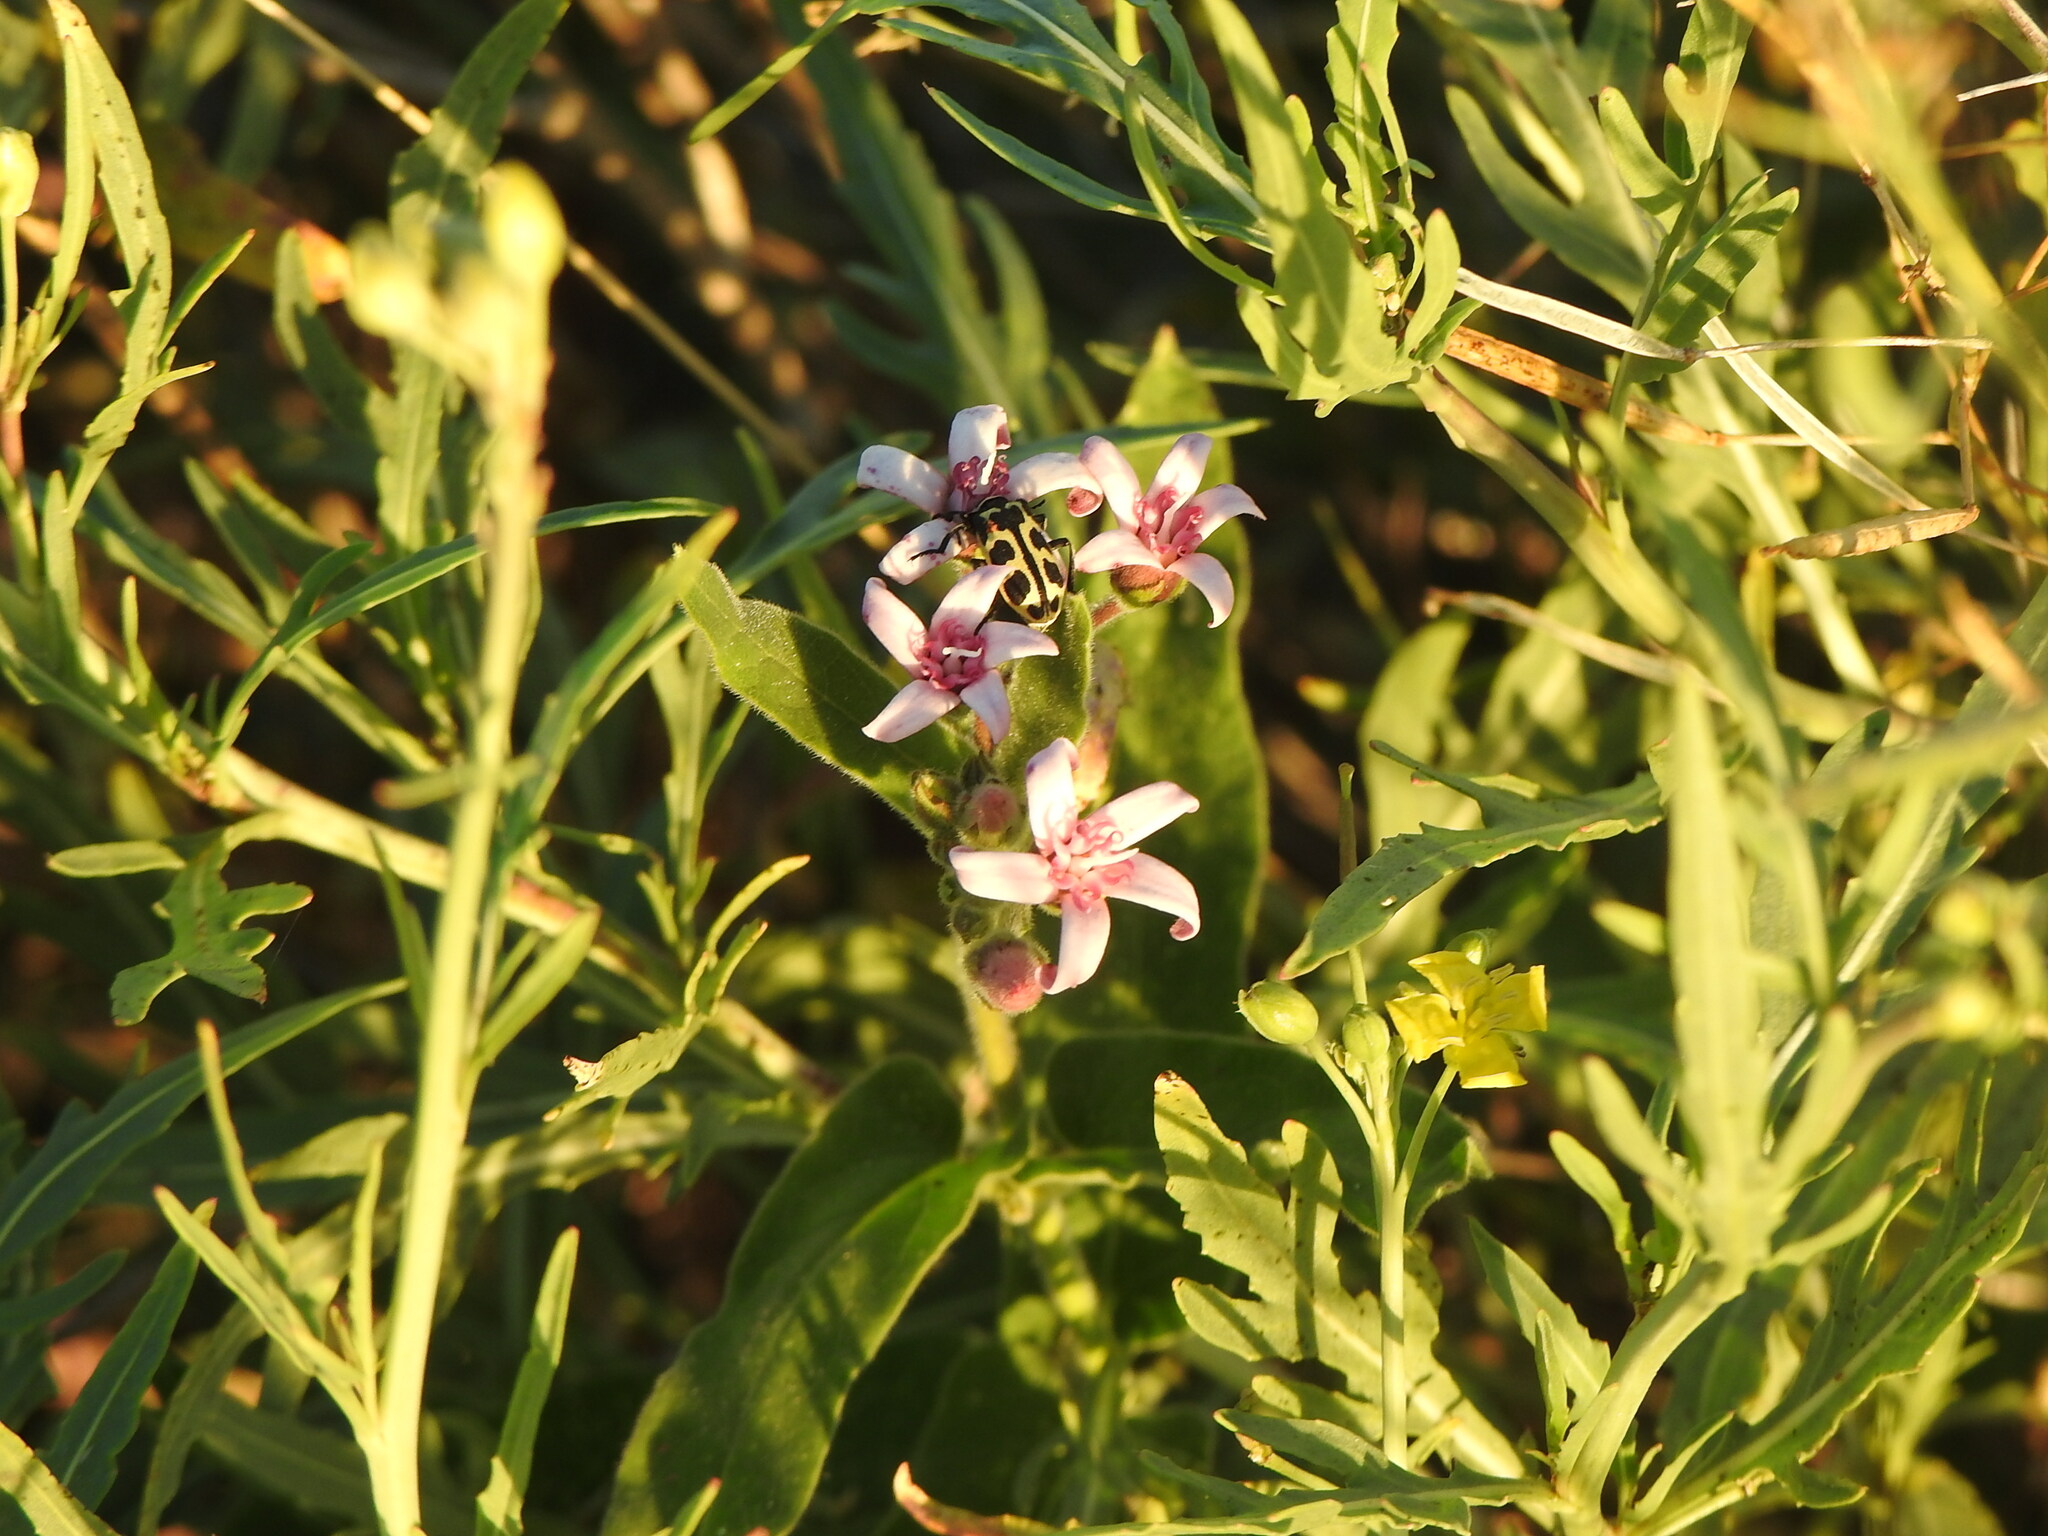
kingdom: Plantae
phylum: Tracheophyta
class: Magnoliopsida
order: Gentianales
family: Apocynaceae
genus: Oxypetalum
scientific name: Oxypetalum solanoides
